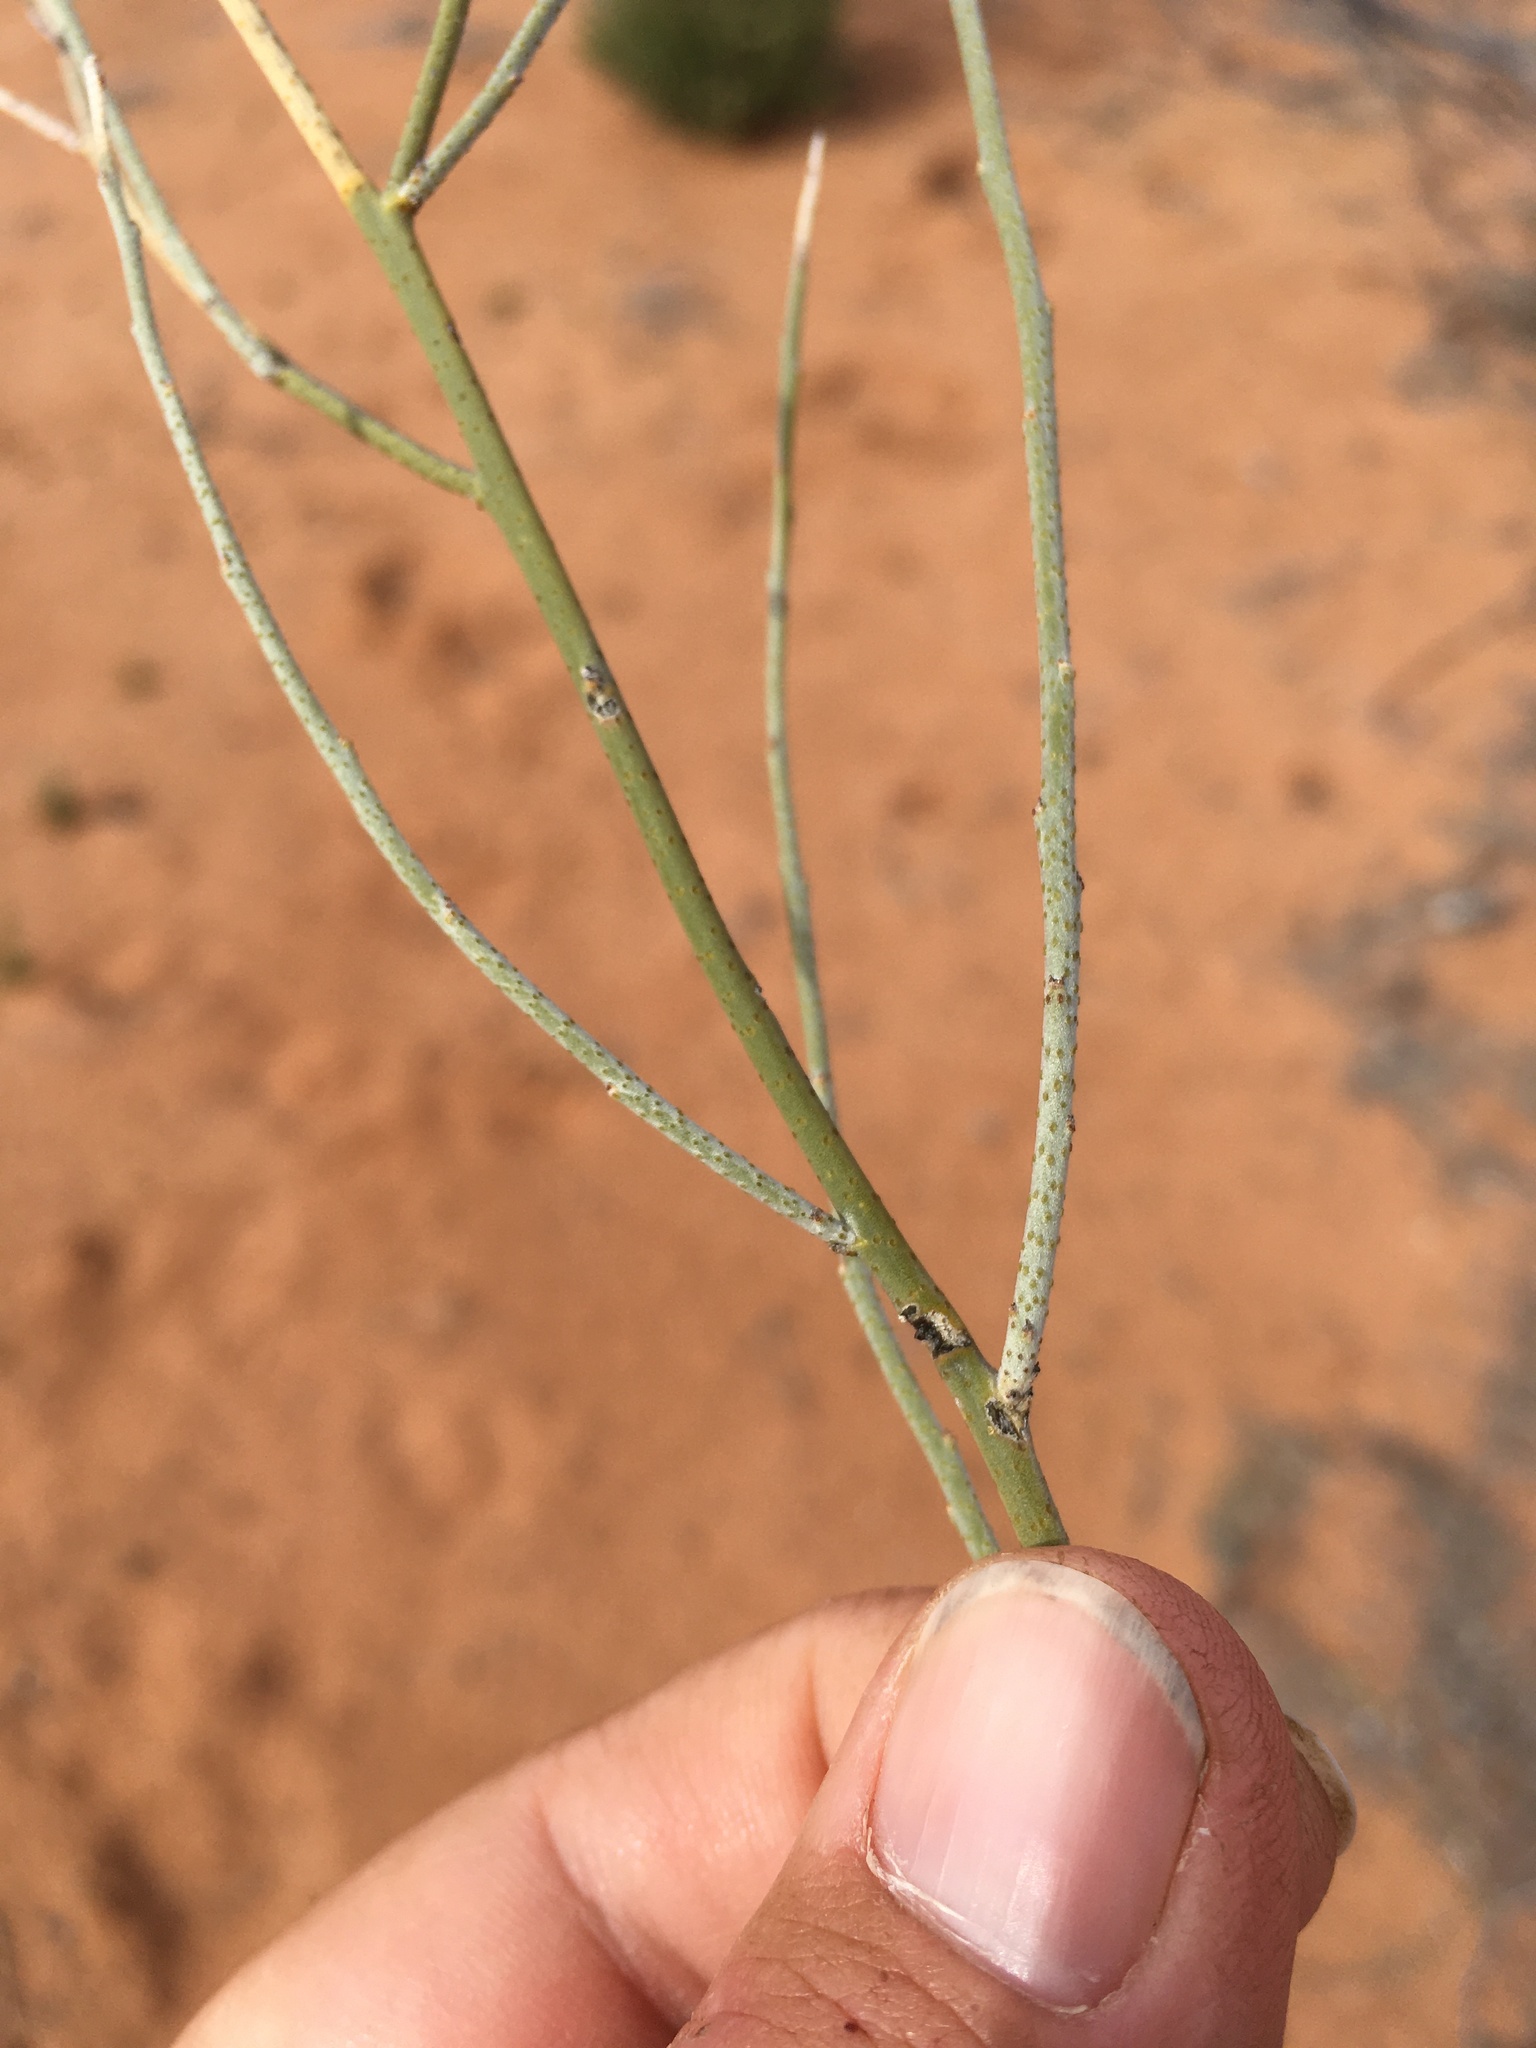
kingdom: Plantae
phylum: Tracheophyta
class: Magnoliopsida
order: Fabales
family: Fabaceae
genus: Psorothamnus
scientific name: Psorothamnus scoparius
